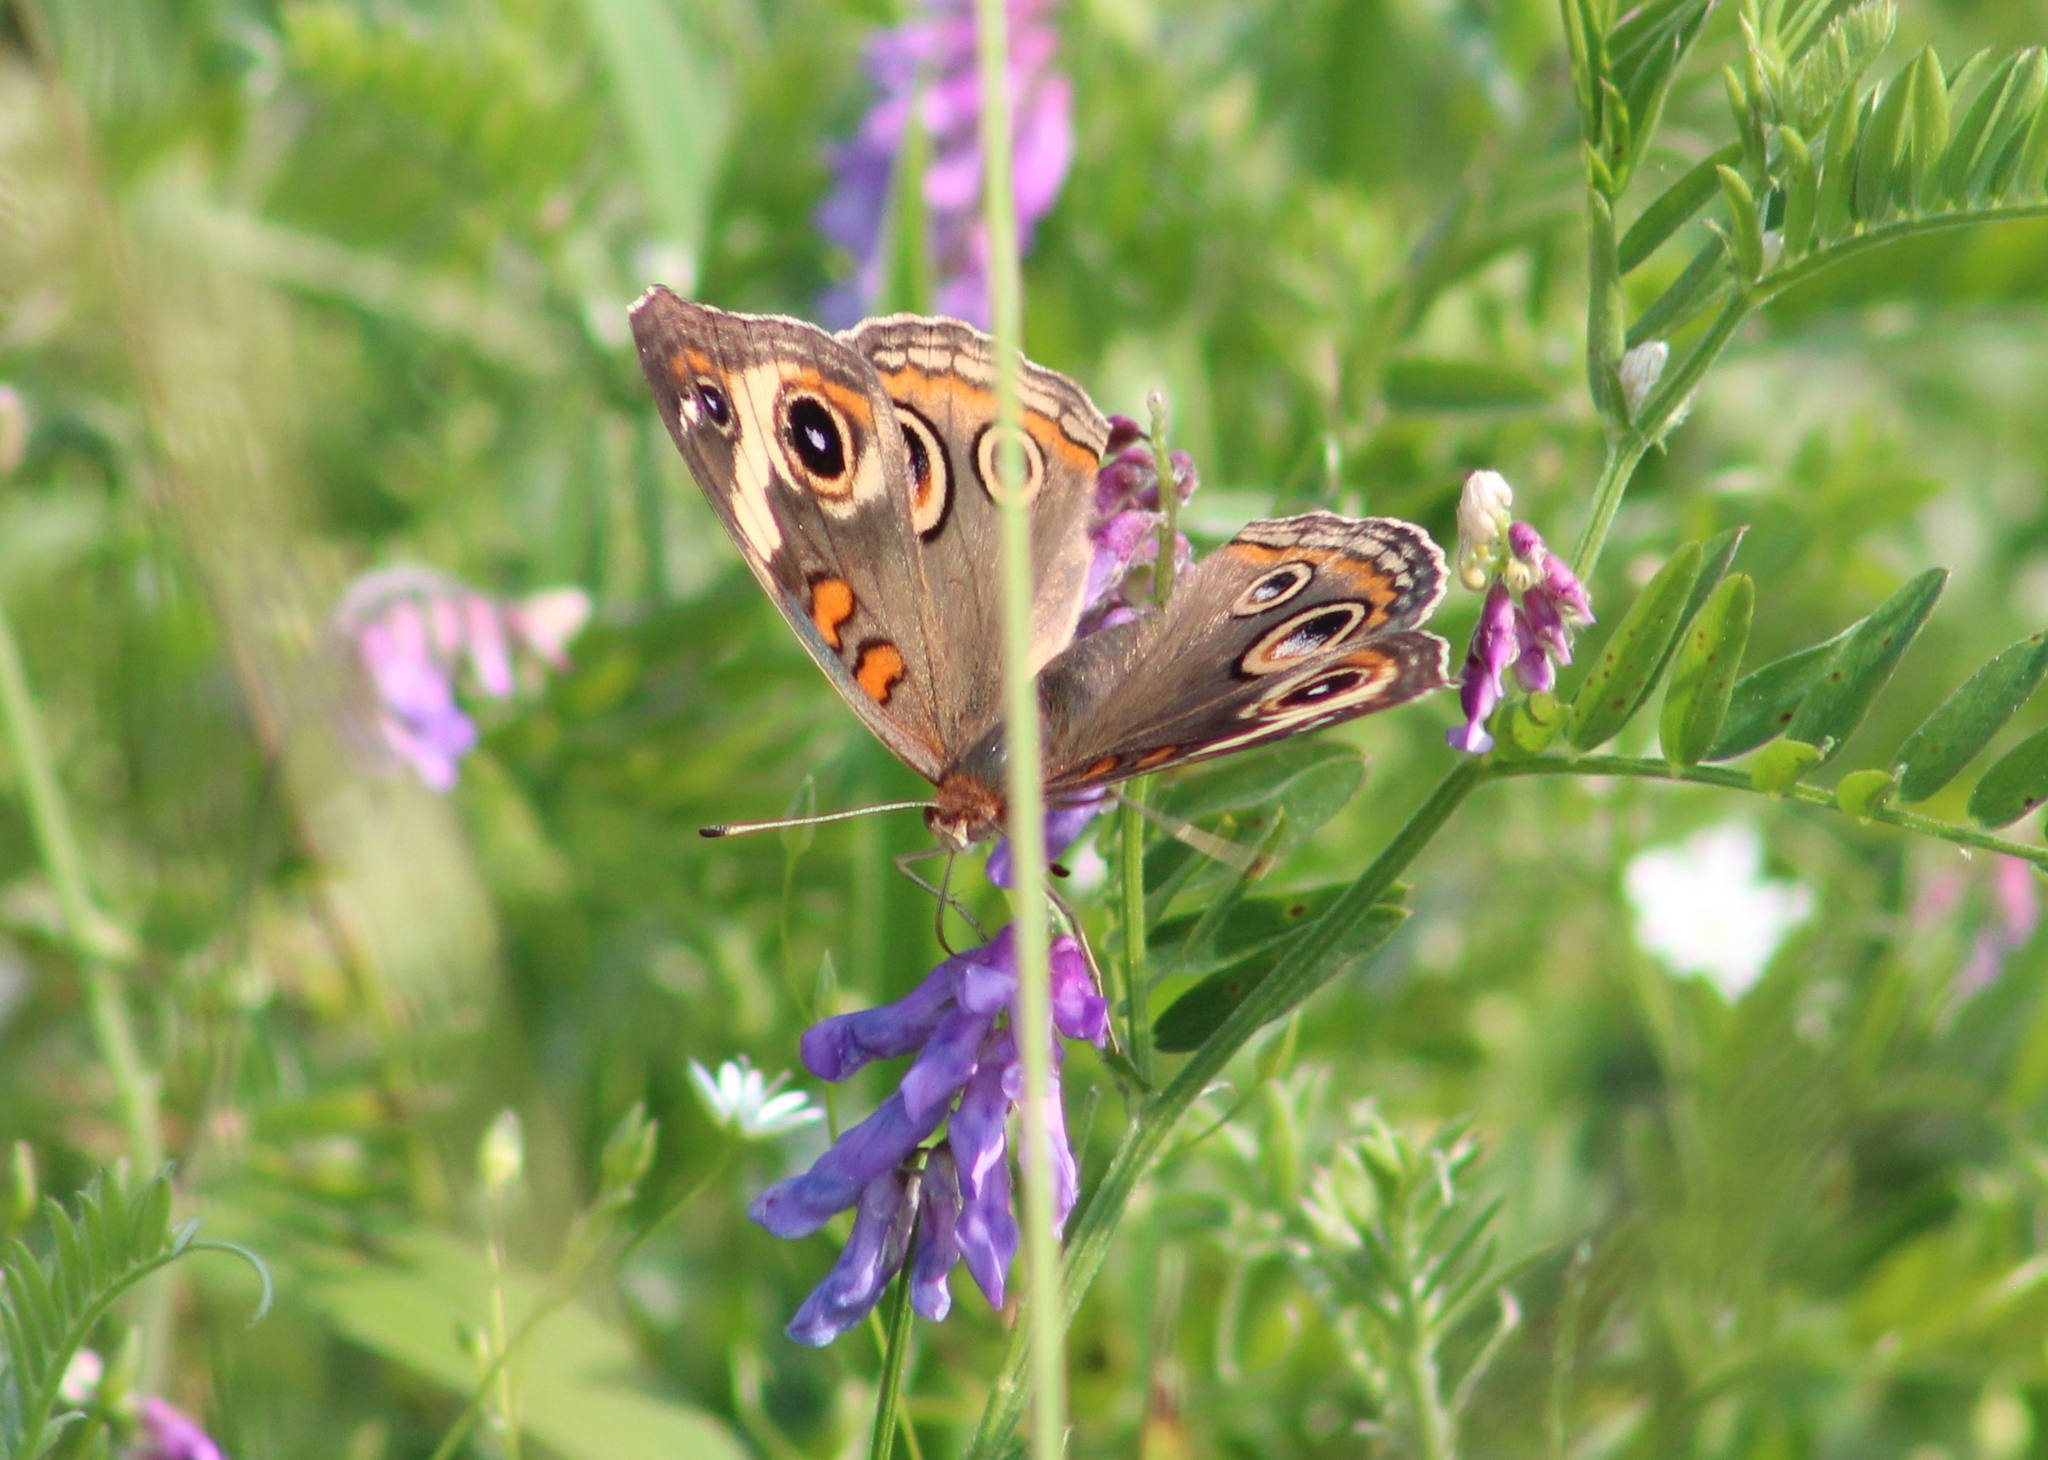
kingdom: Animalia
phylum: Arthropoda
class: Insecta
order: Lepidoptera
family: Nymphalidae
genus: Junonia
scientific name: Junonia coenia
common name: Common buckeye
